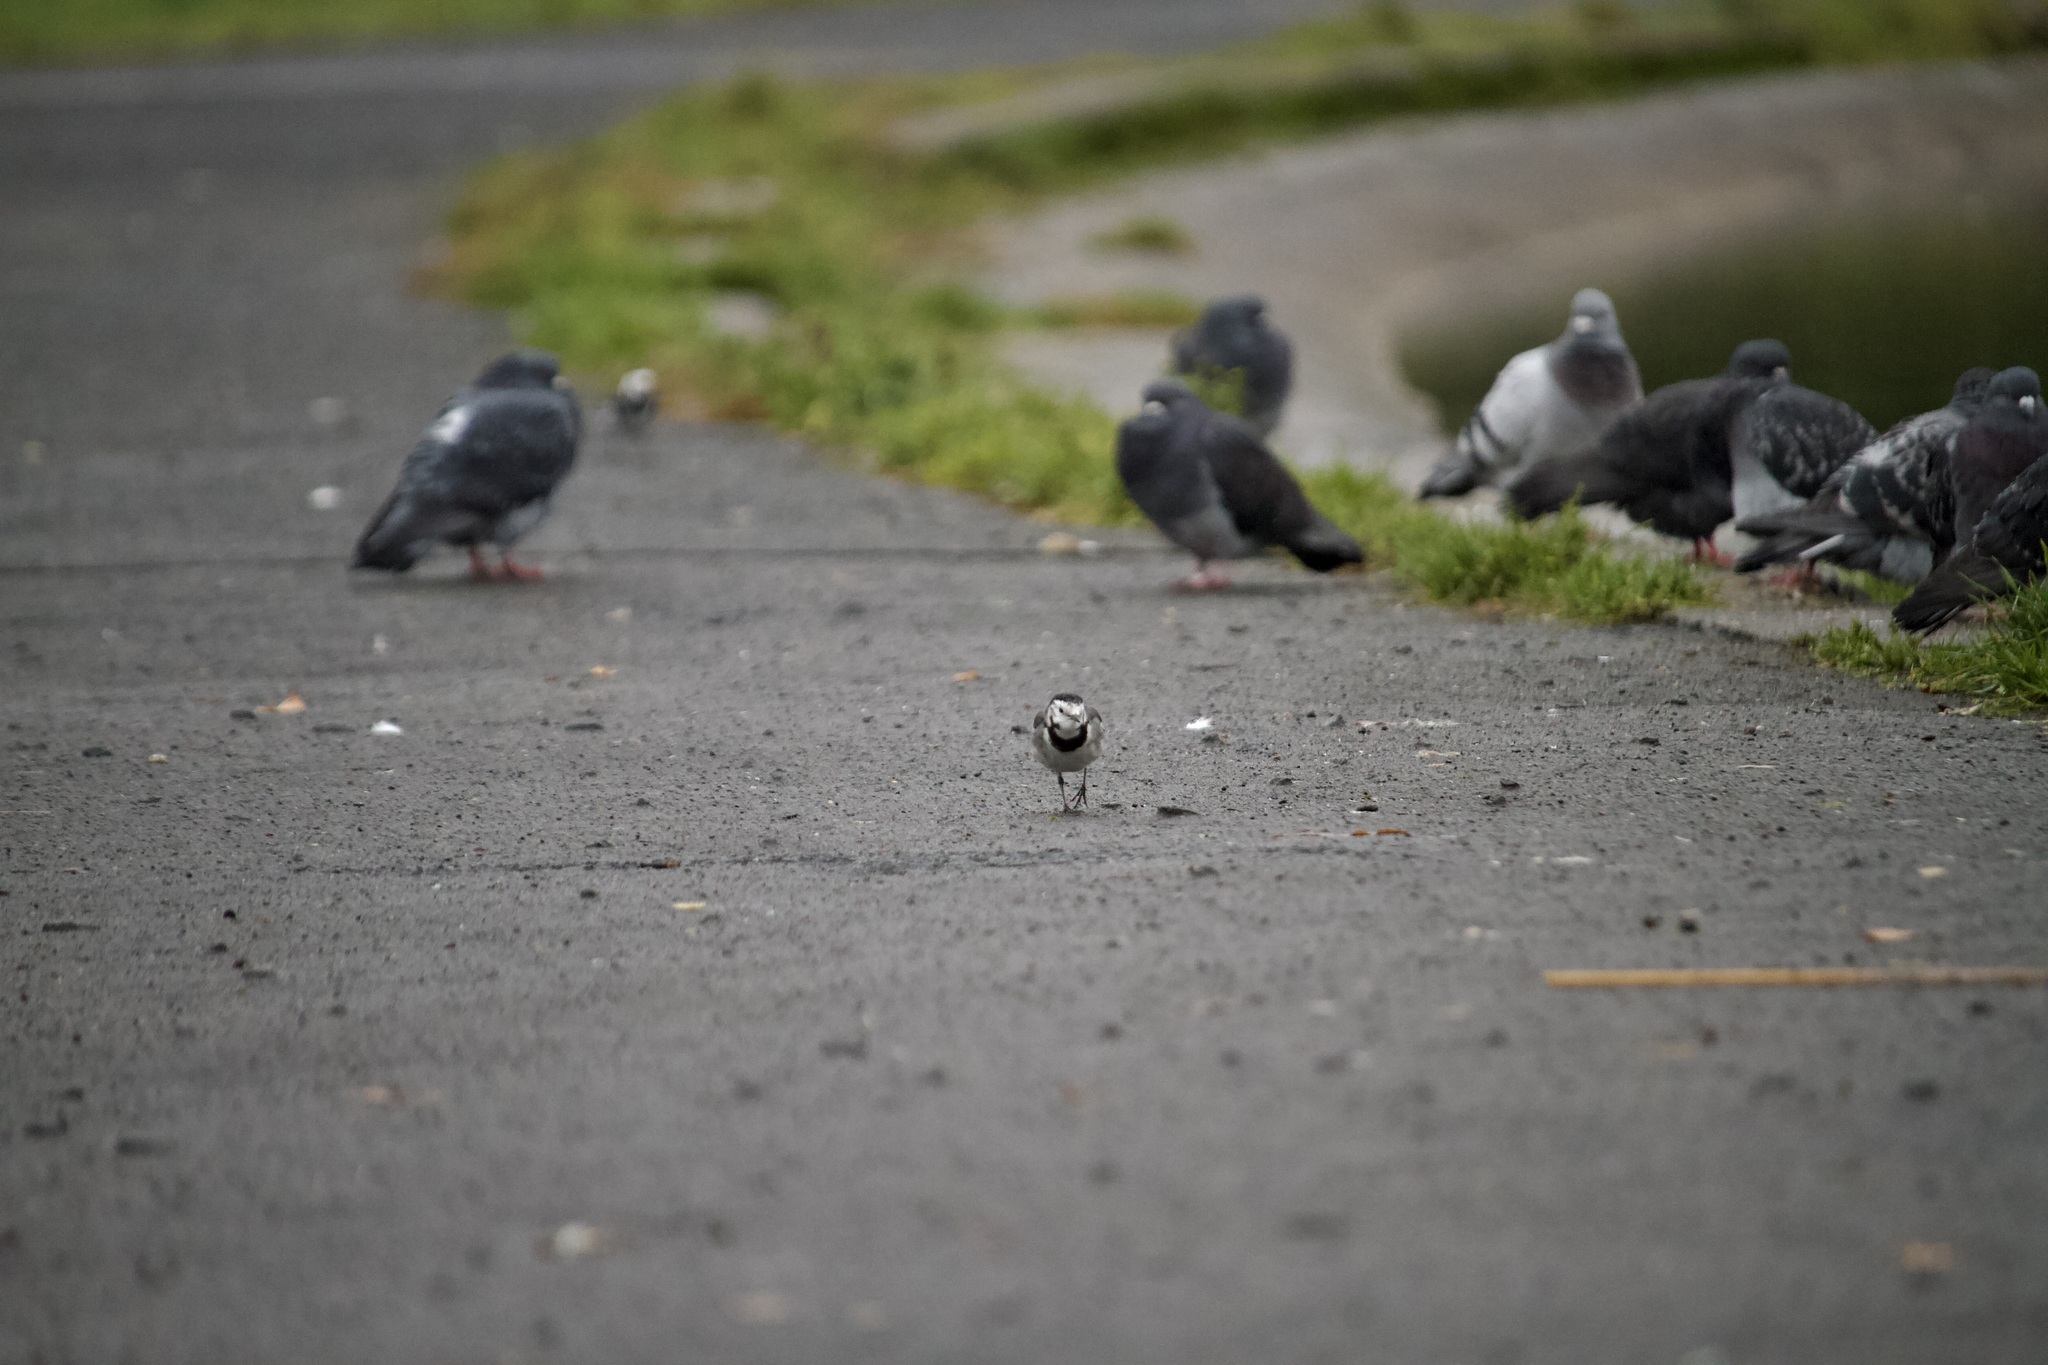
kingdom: Animalia
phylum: Chordata
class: Aves
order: Passeriformes
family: Motacillidae
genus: Motacilla
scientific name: Motacilla alba
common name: White wagtail
